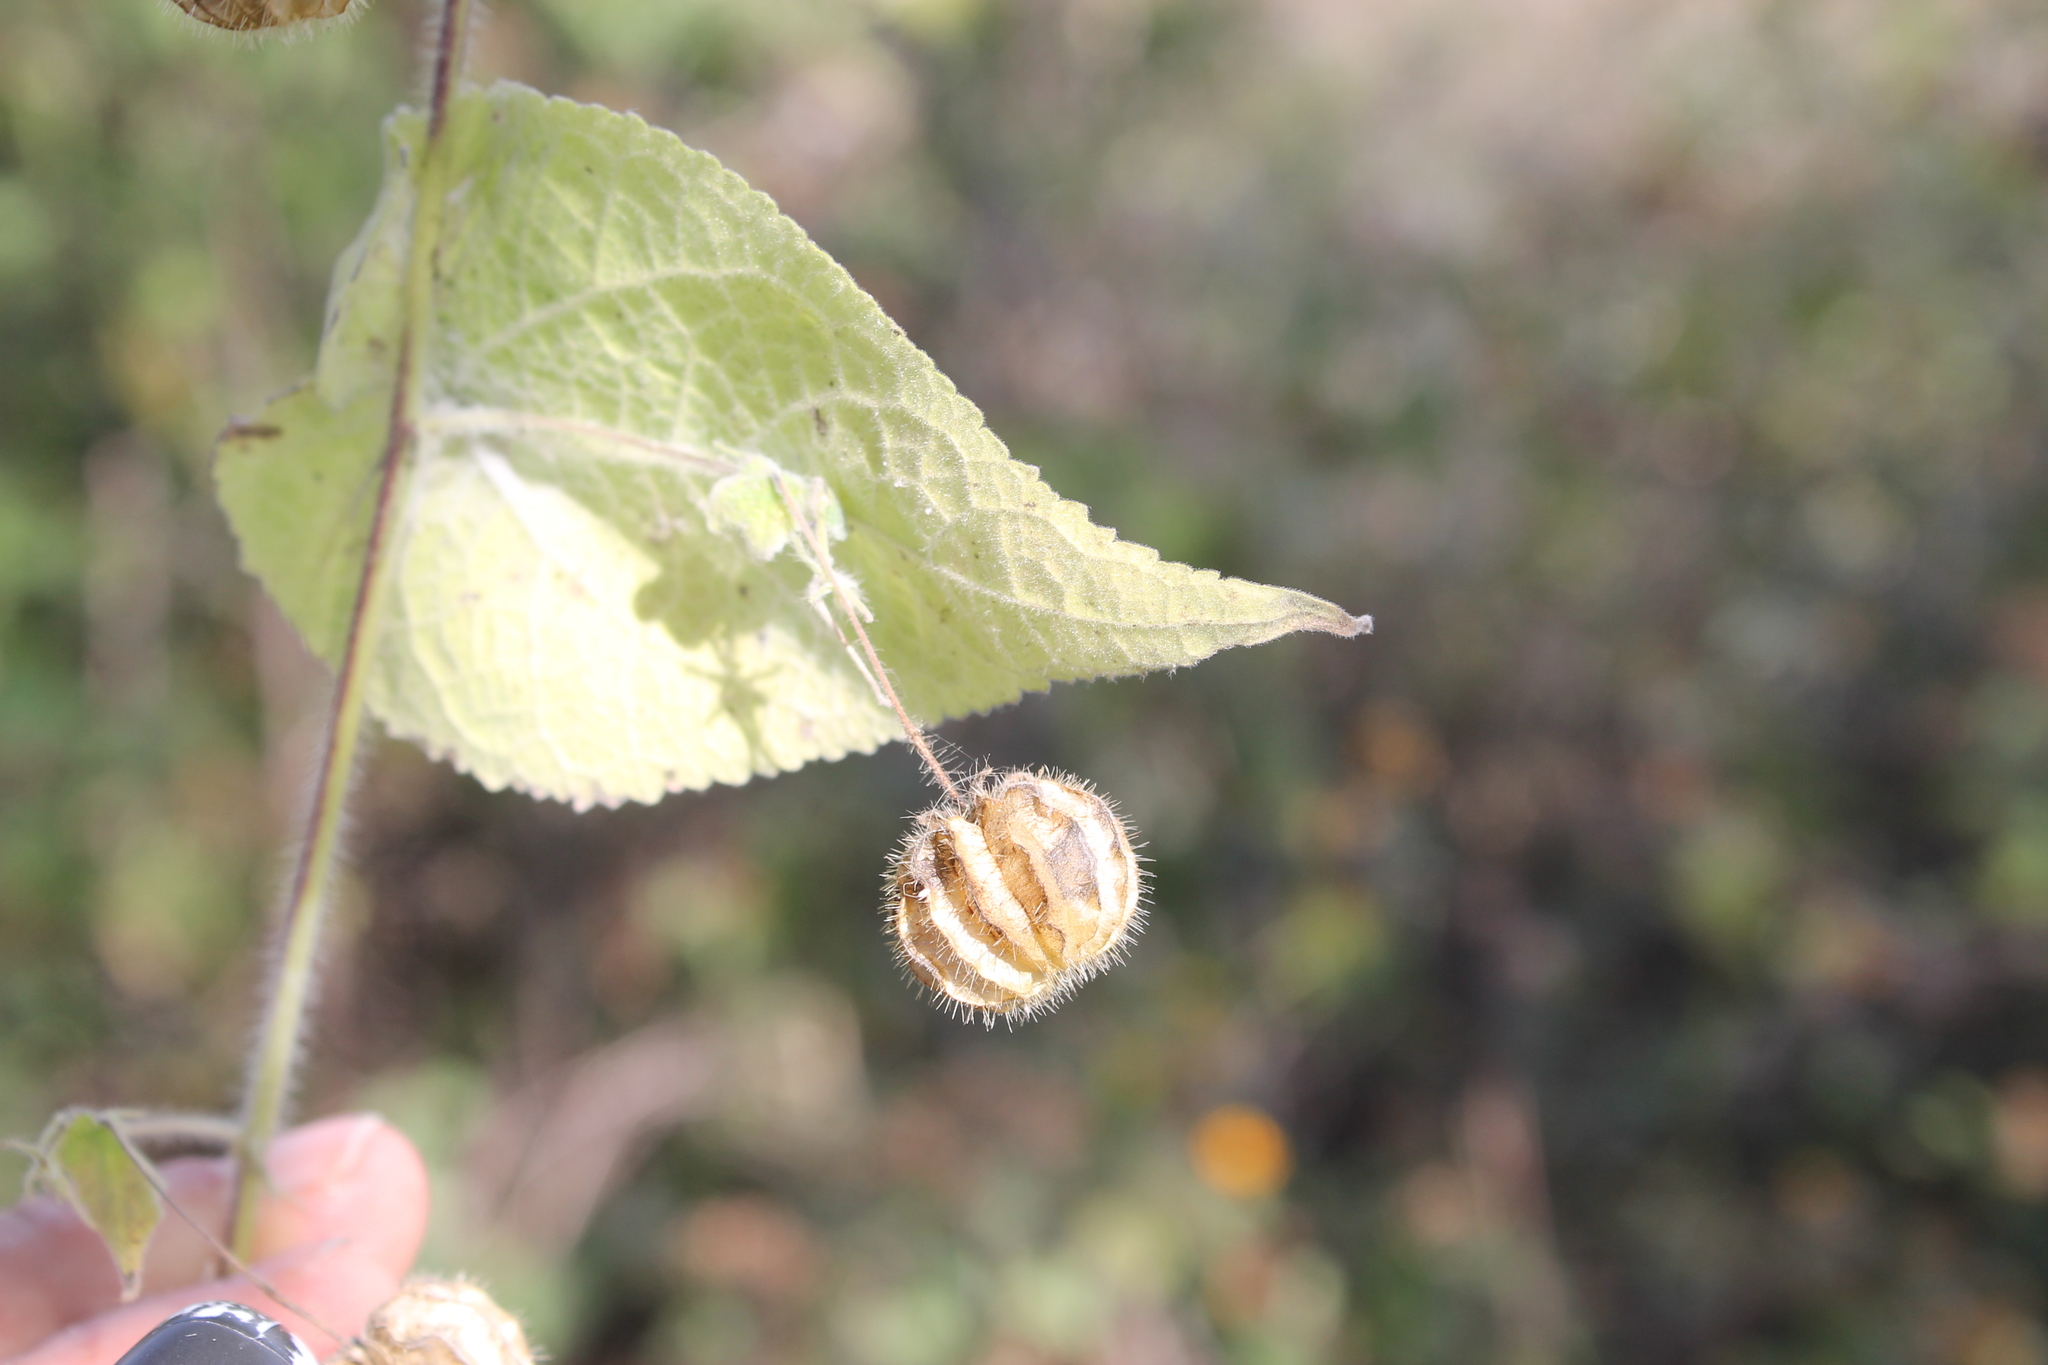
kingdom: Plantae
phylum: Tracheophyta
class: Magnoliopsida
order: Malvales
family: Malvaceae
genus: Herissantia
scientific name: Herissantia crispa
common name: Bladdermallow
